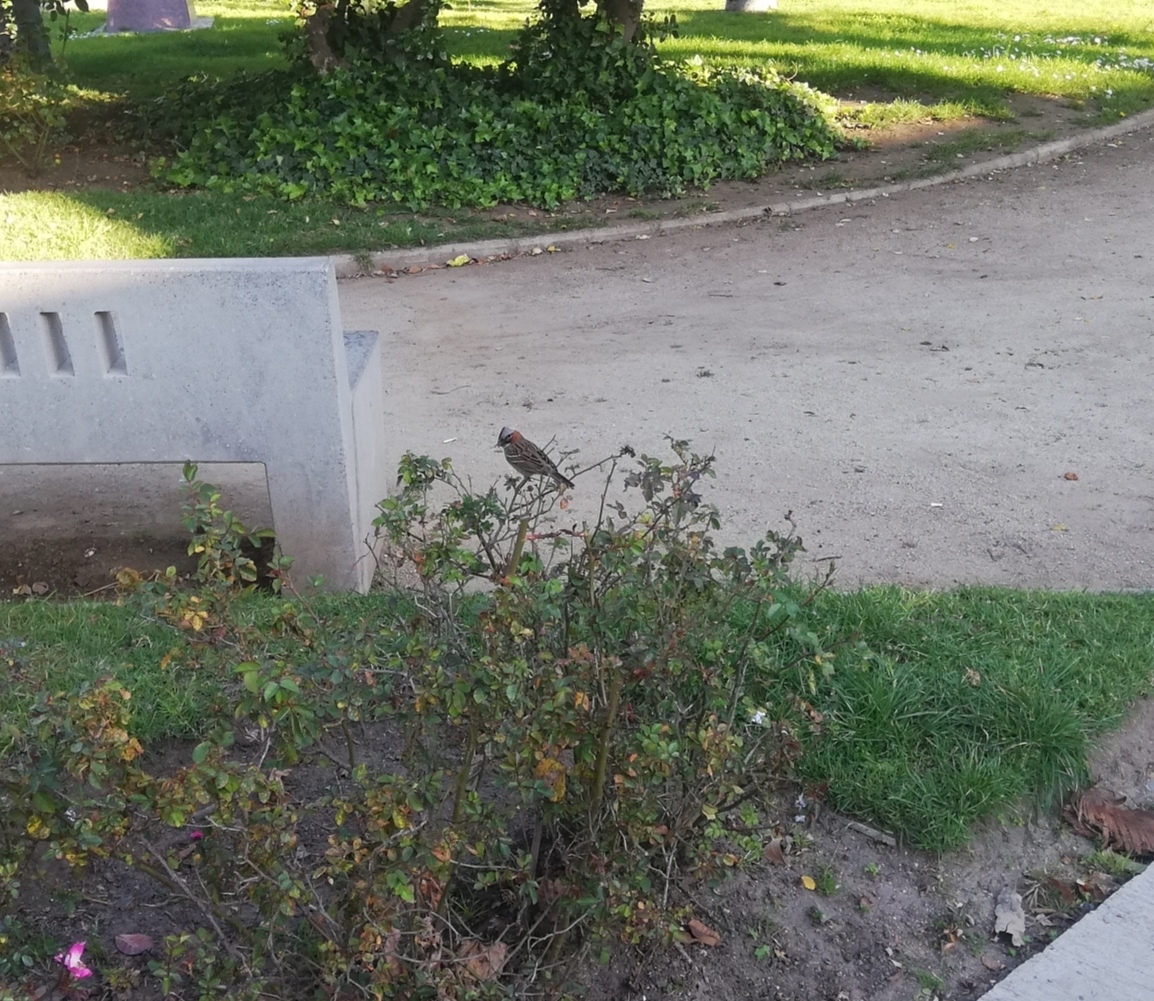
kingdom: Animalia
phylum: Chordata
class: Aves
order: Passeriformes
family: Passerellidae
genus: Zonotrichia
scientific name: Zonotrichia capensis
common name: Rufous-collared sparrow
